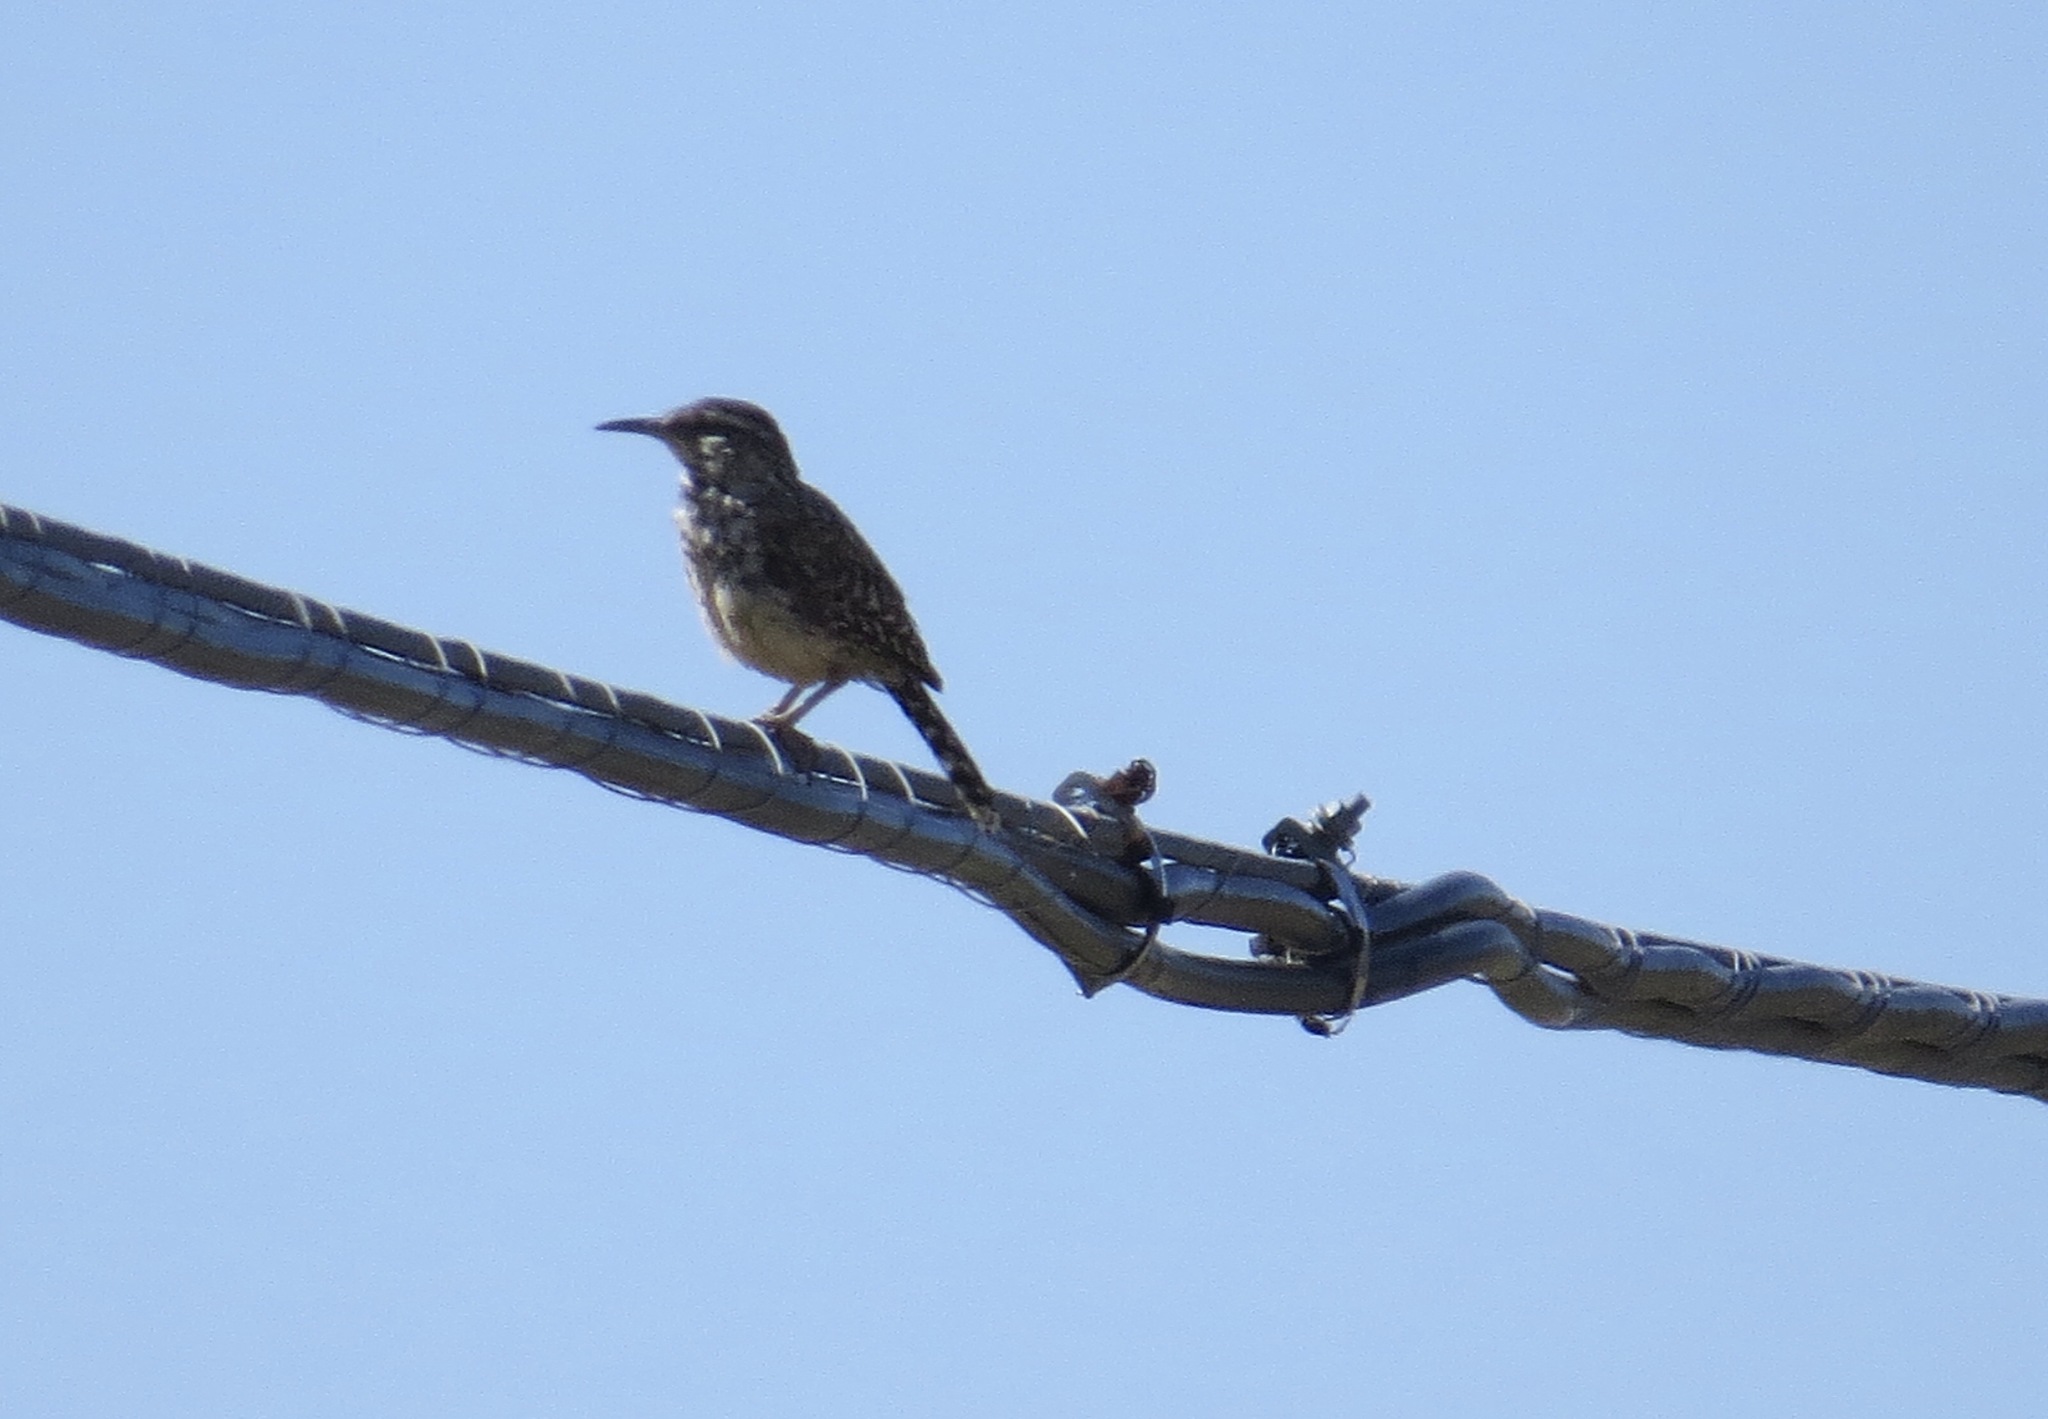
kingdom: Animalia
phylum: Chordata
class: Aves
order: Passeriformes
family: Troglodytidae
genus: Campylorhynchus
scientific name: Campylorhynchus brunneicapillus
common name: Cactus wren
